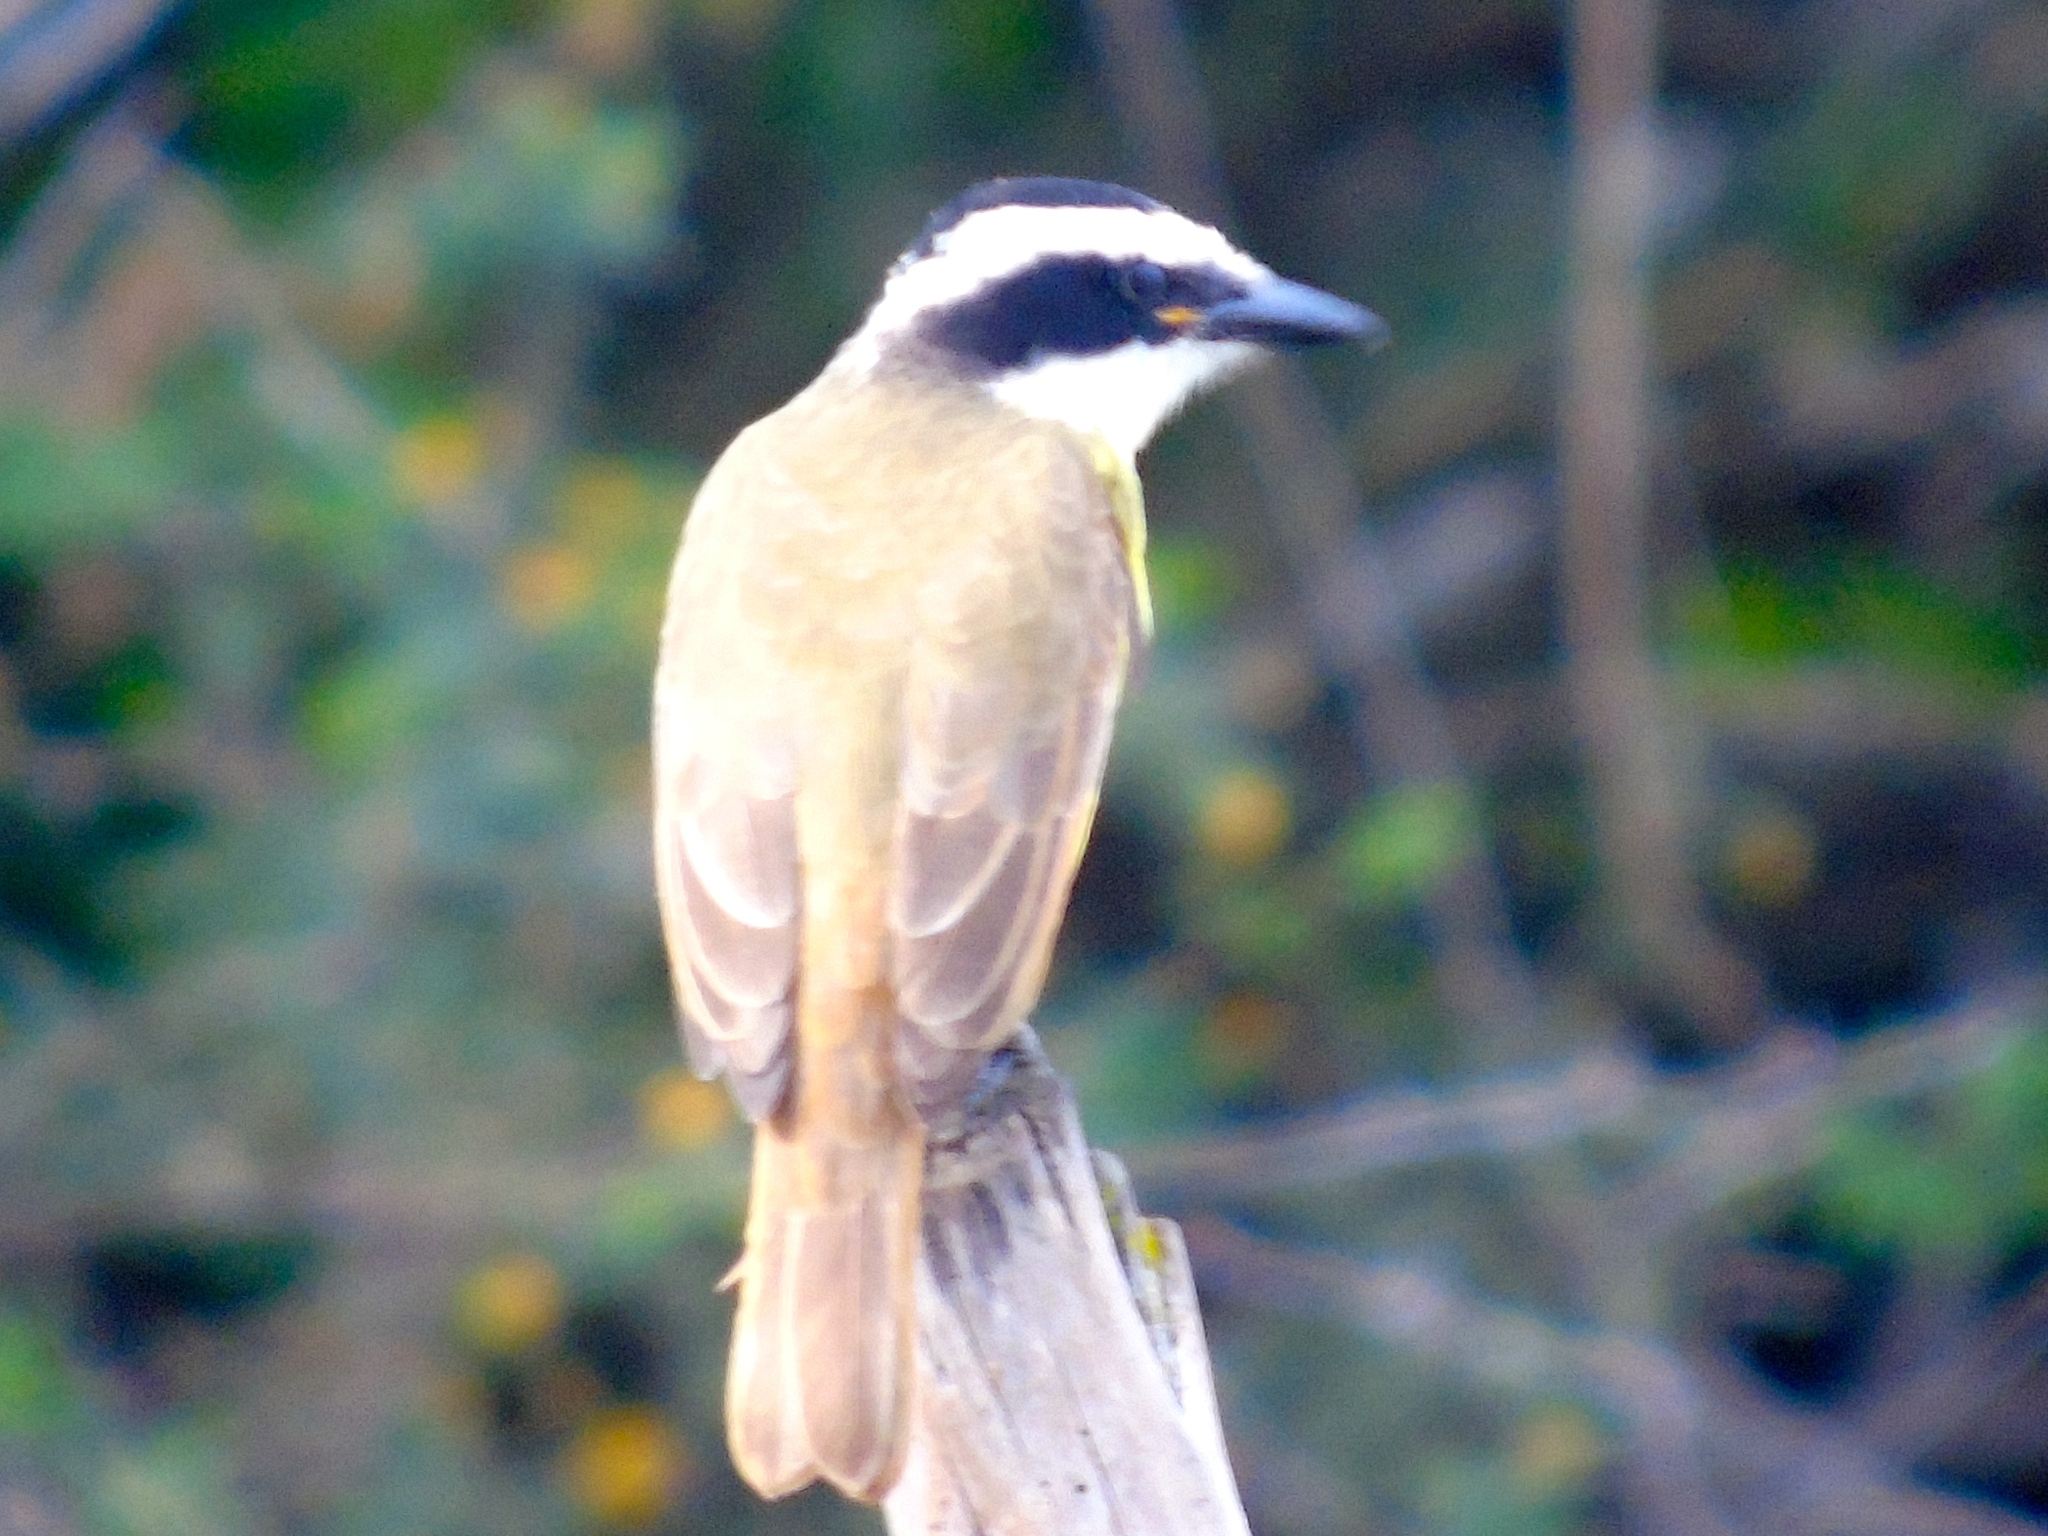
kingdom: Animalia
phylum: Chordata
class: Aves
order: Passeriformes
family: Tyrannidae
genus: Pitangus
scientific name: Pitangus sulphuratus
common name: Great kiskadee
